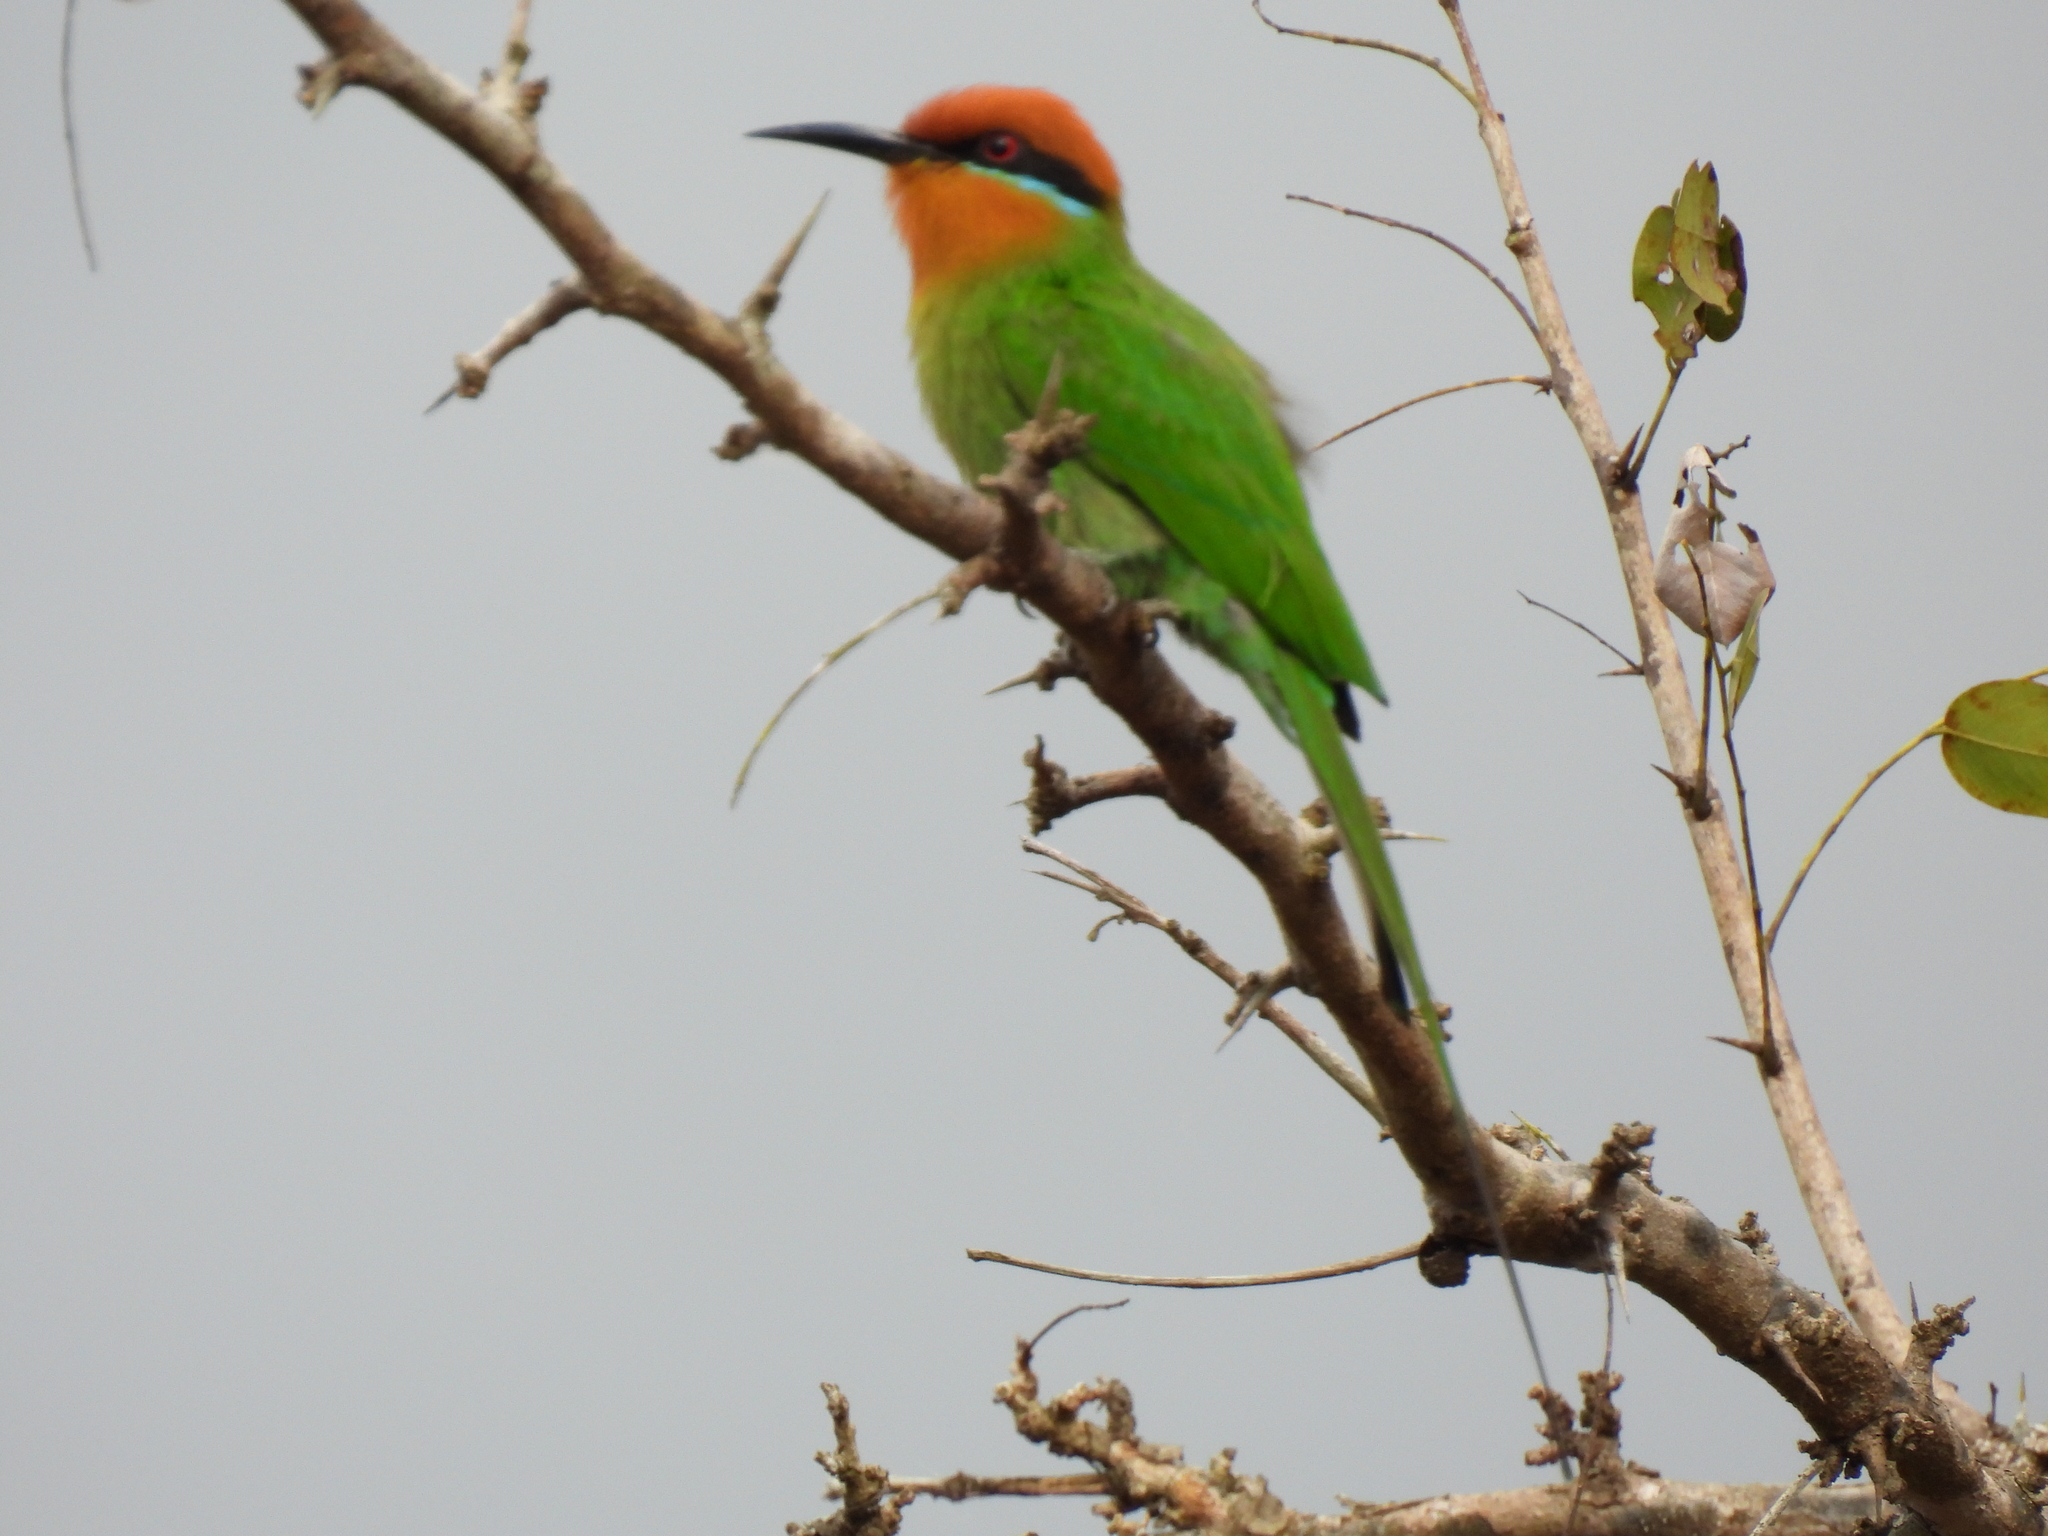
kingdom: Animalia
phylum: Chordata
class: Aves
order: Coraciiformes
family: Meropidae
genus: Merops
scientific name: Merops boehmi
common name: Böhm's bee-eater
